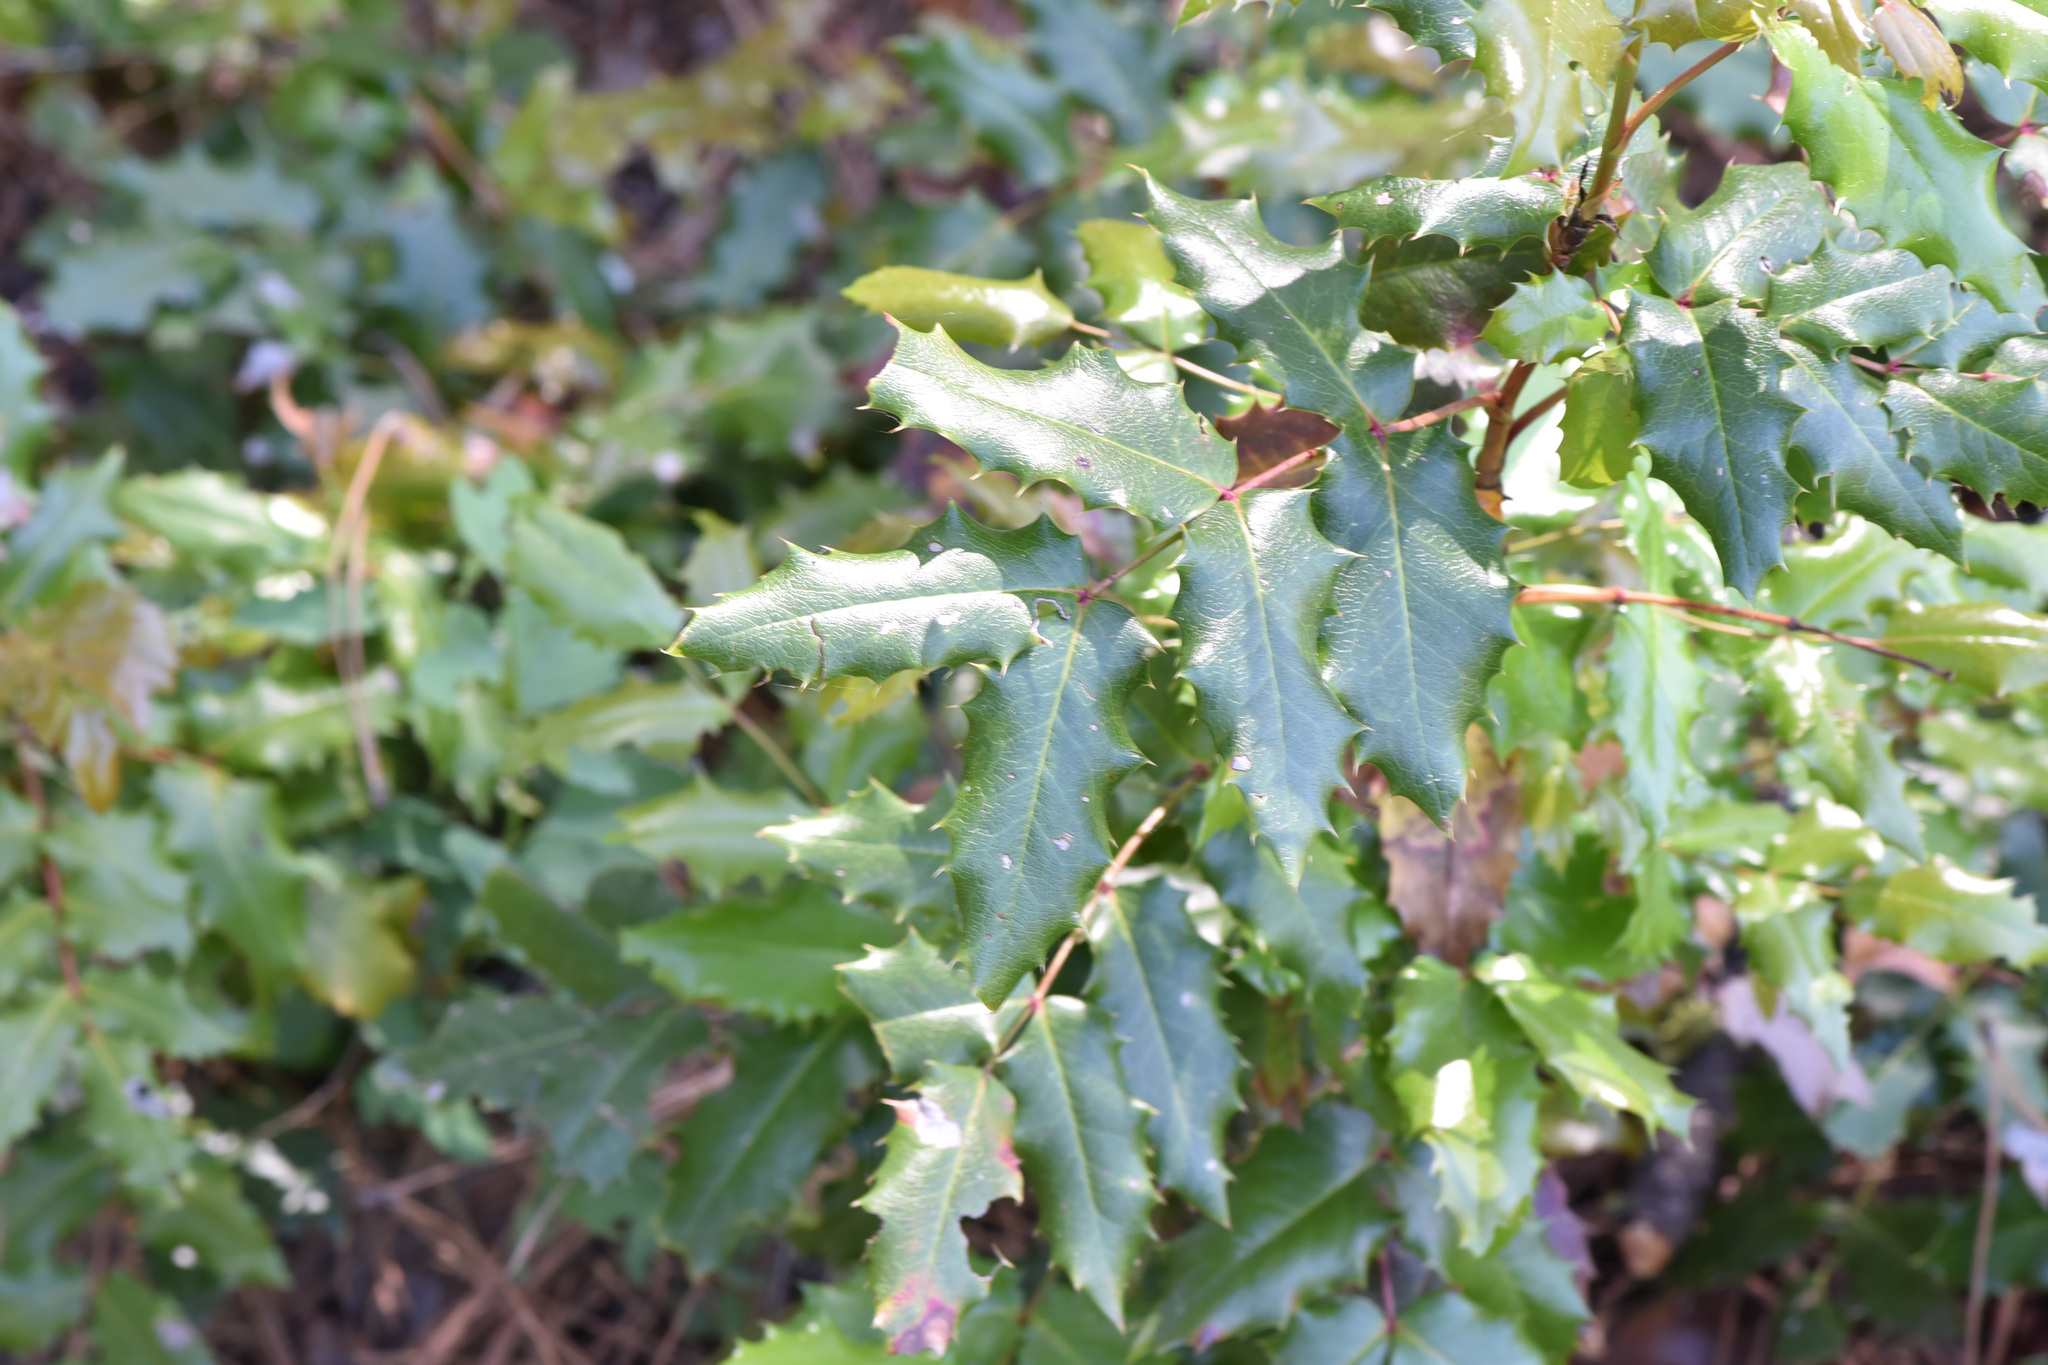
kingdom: Plantae
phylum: Tracheophyta
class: Magnoliopsida
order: Ranunculales
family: Berberidaceae
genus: Mahonia
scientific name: Mahonia aquifolium
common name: Oregon-grape
